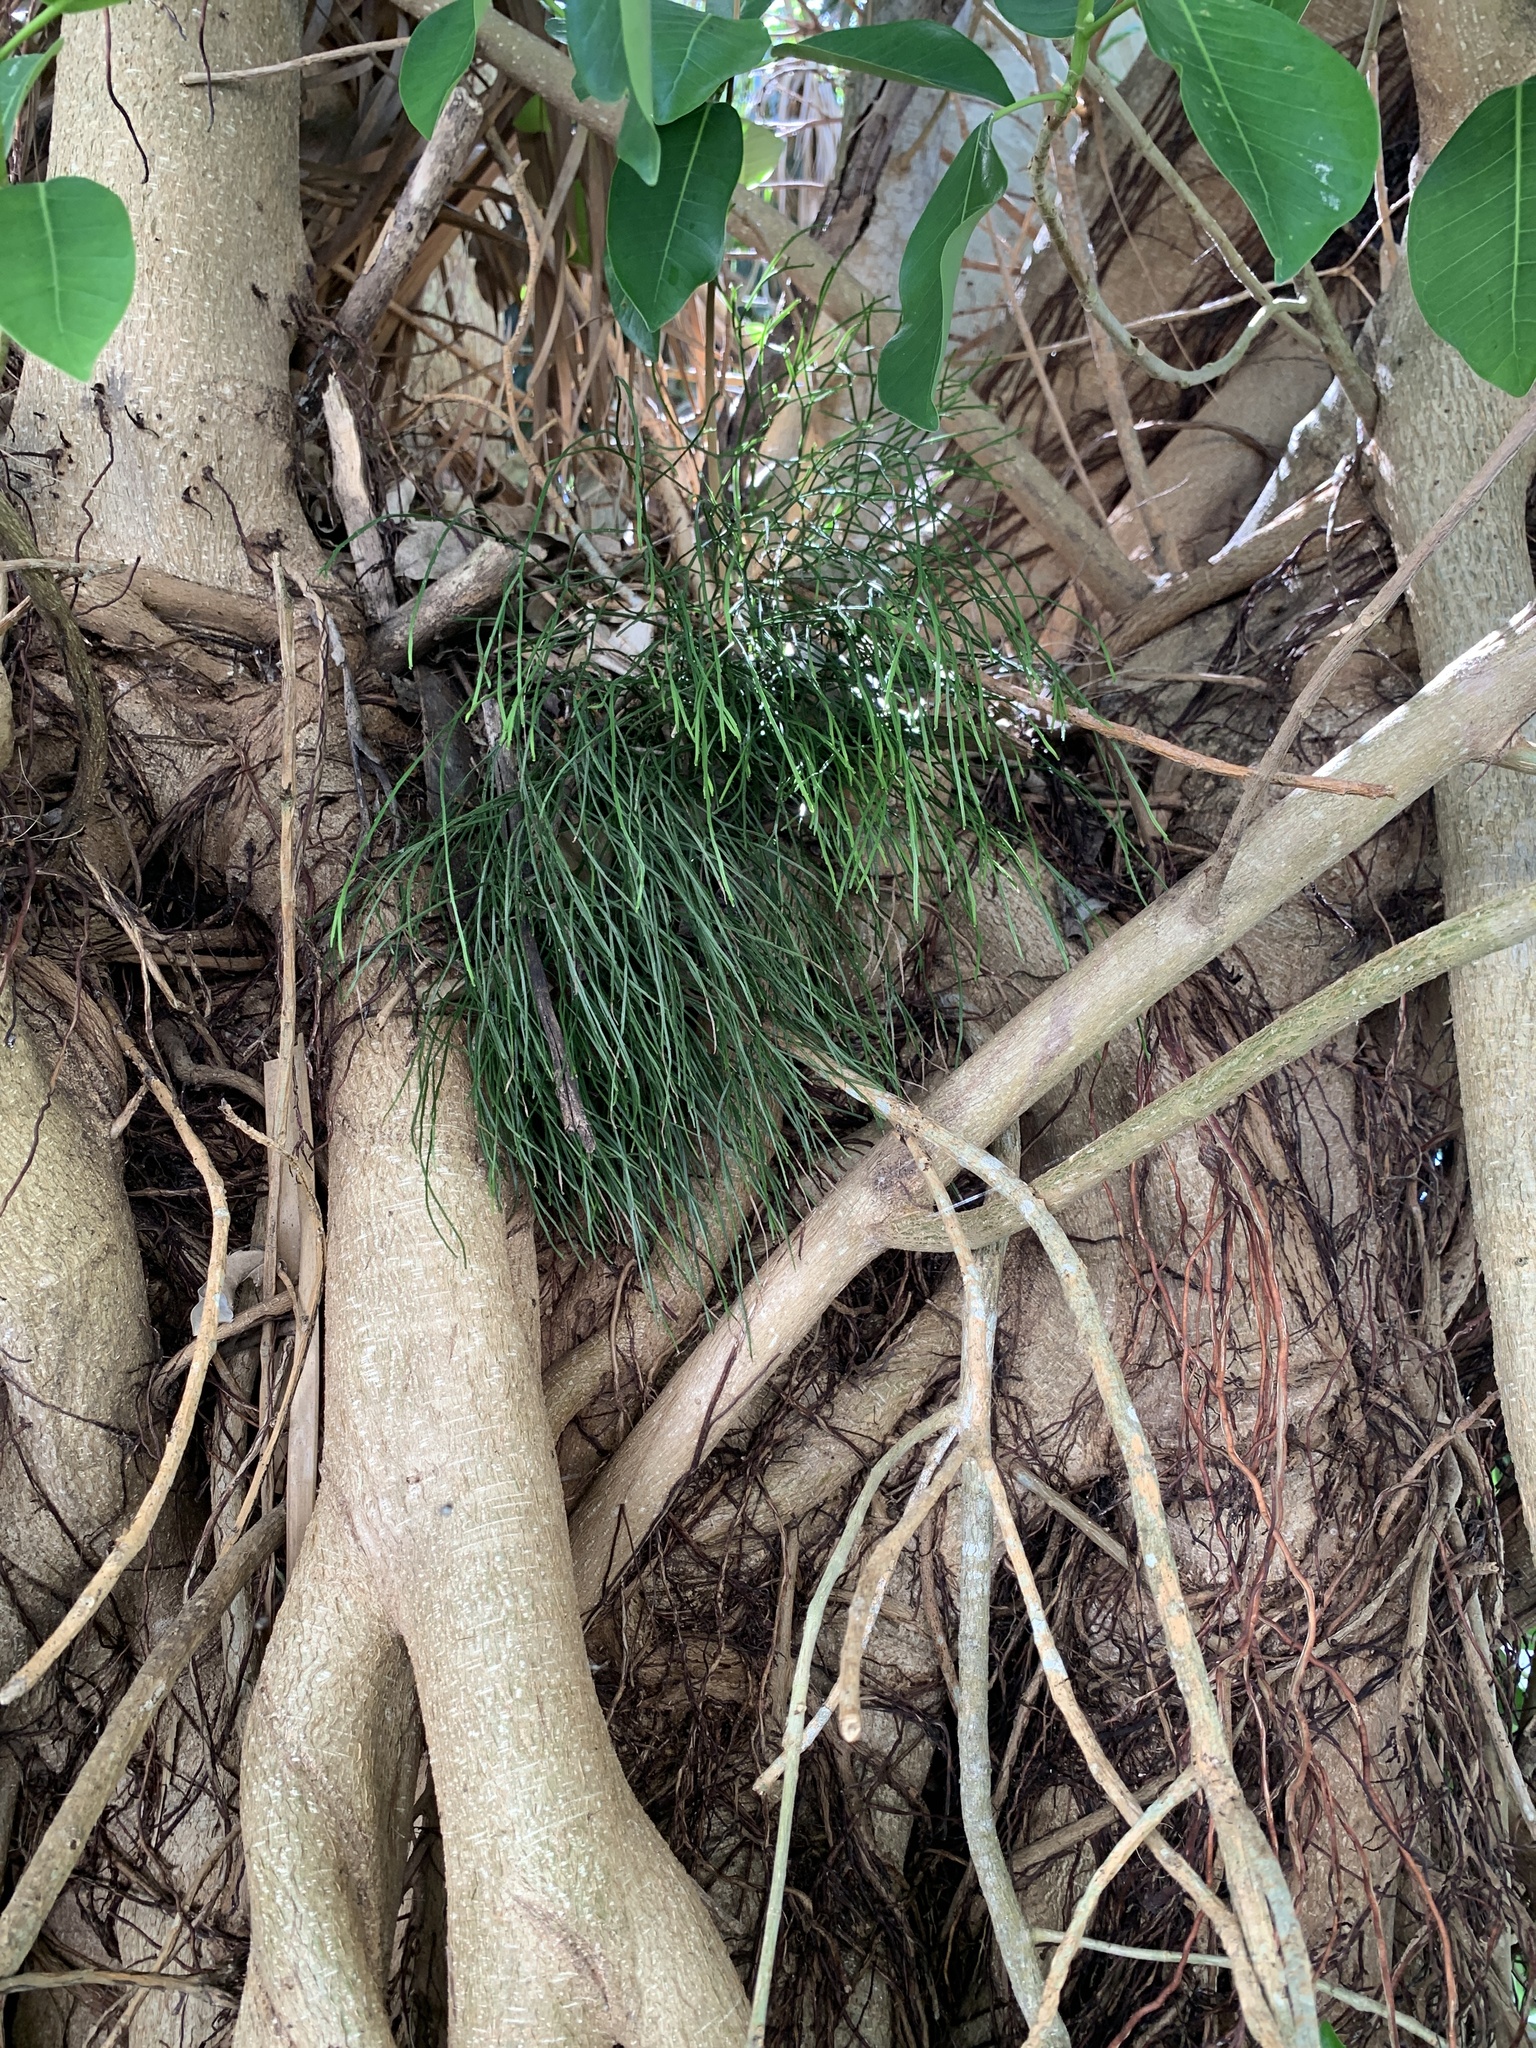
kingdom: Plantae
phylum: Tracheophyta
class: Polypodiopsida
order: Psilotales
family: Psilotaceae
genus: Psilotum
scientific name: Psilotum nudum
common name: Skeleton fork fern
